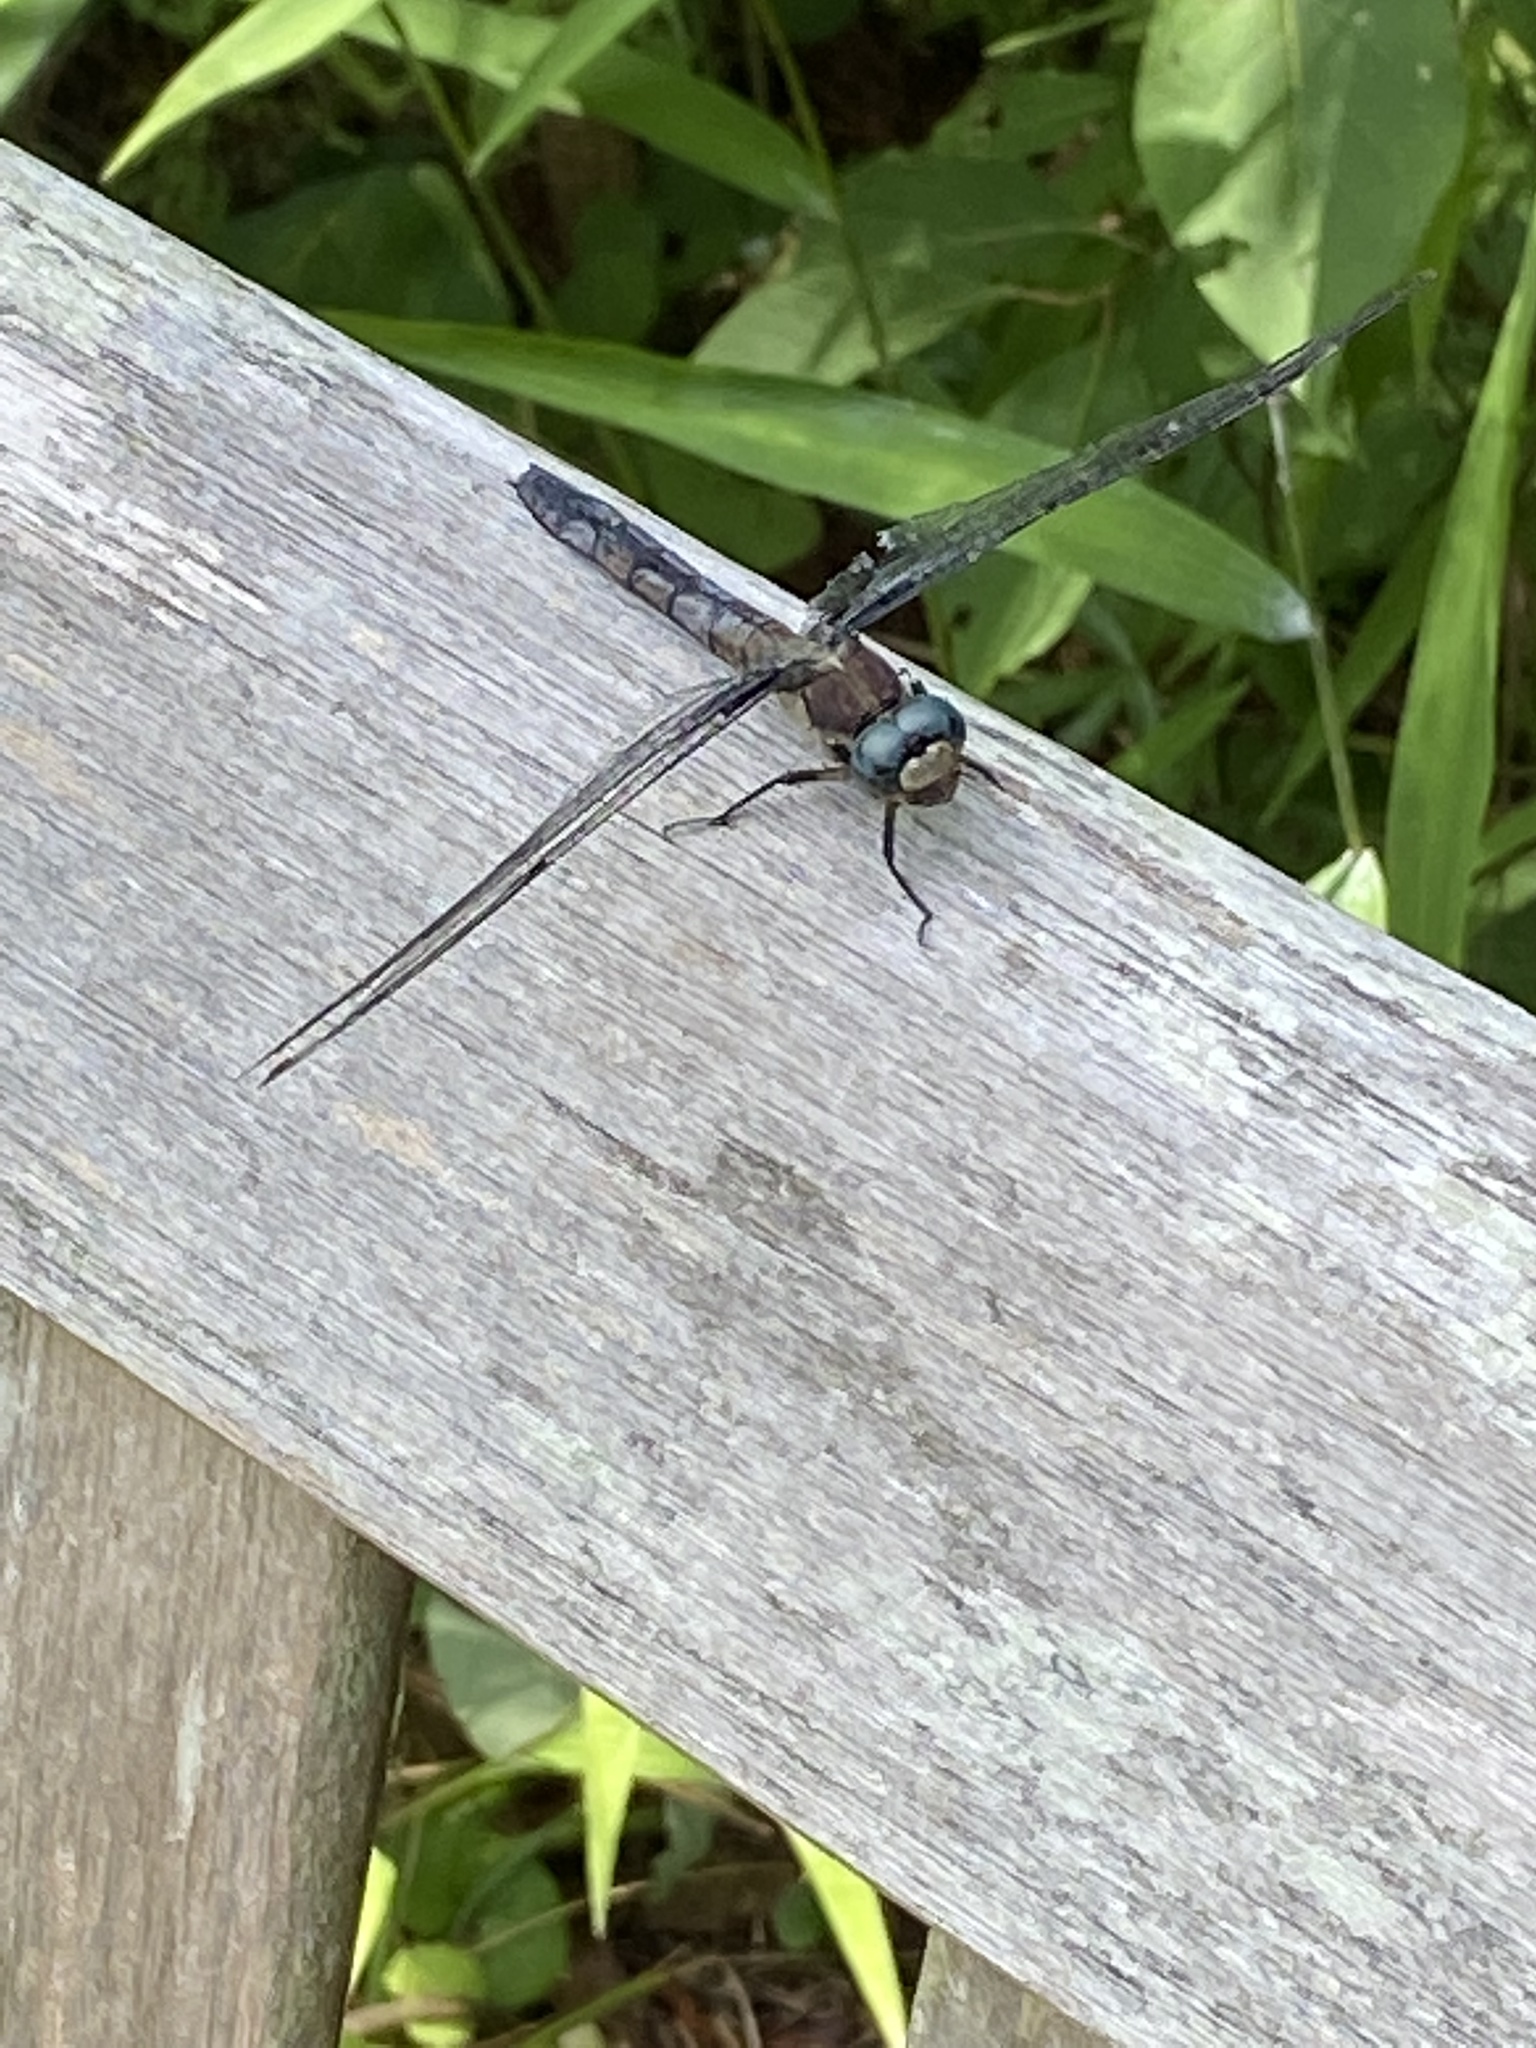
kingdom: Animalia
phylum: Arthropoda
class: Insecta
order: Odonata
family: Libellulidae
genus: Libellula
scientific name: Libellula vibrans
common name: Great blue skimmer
